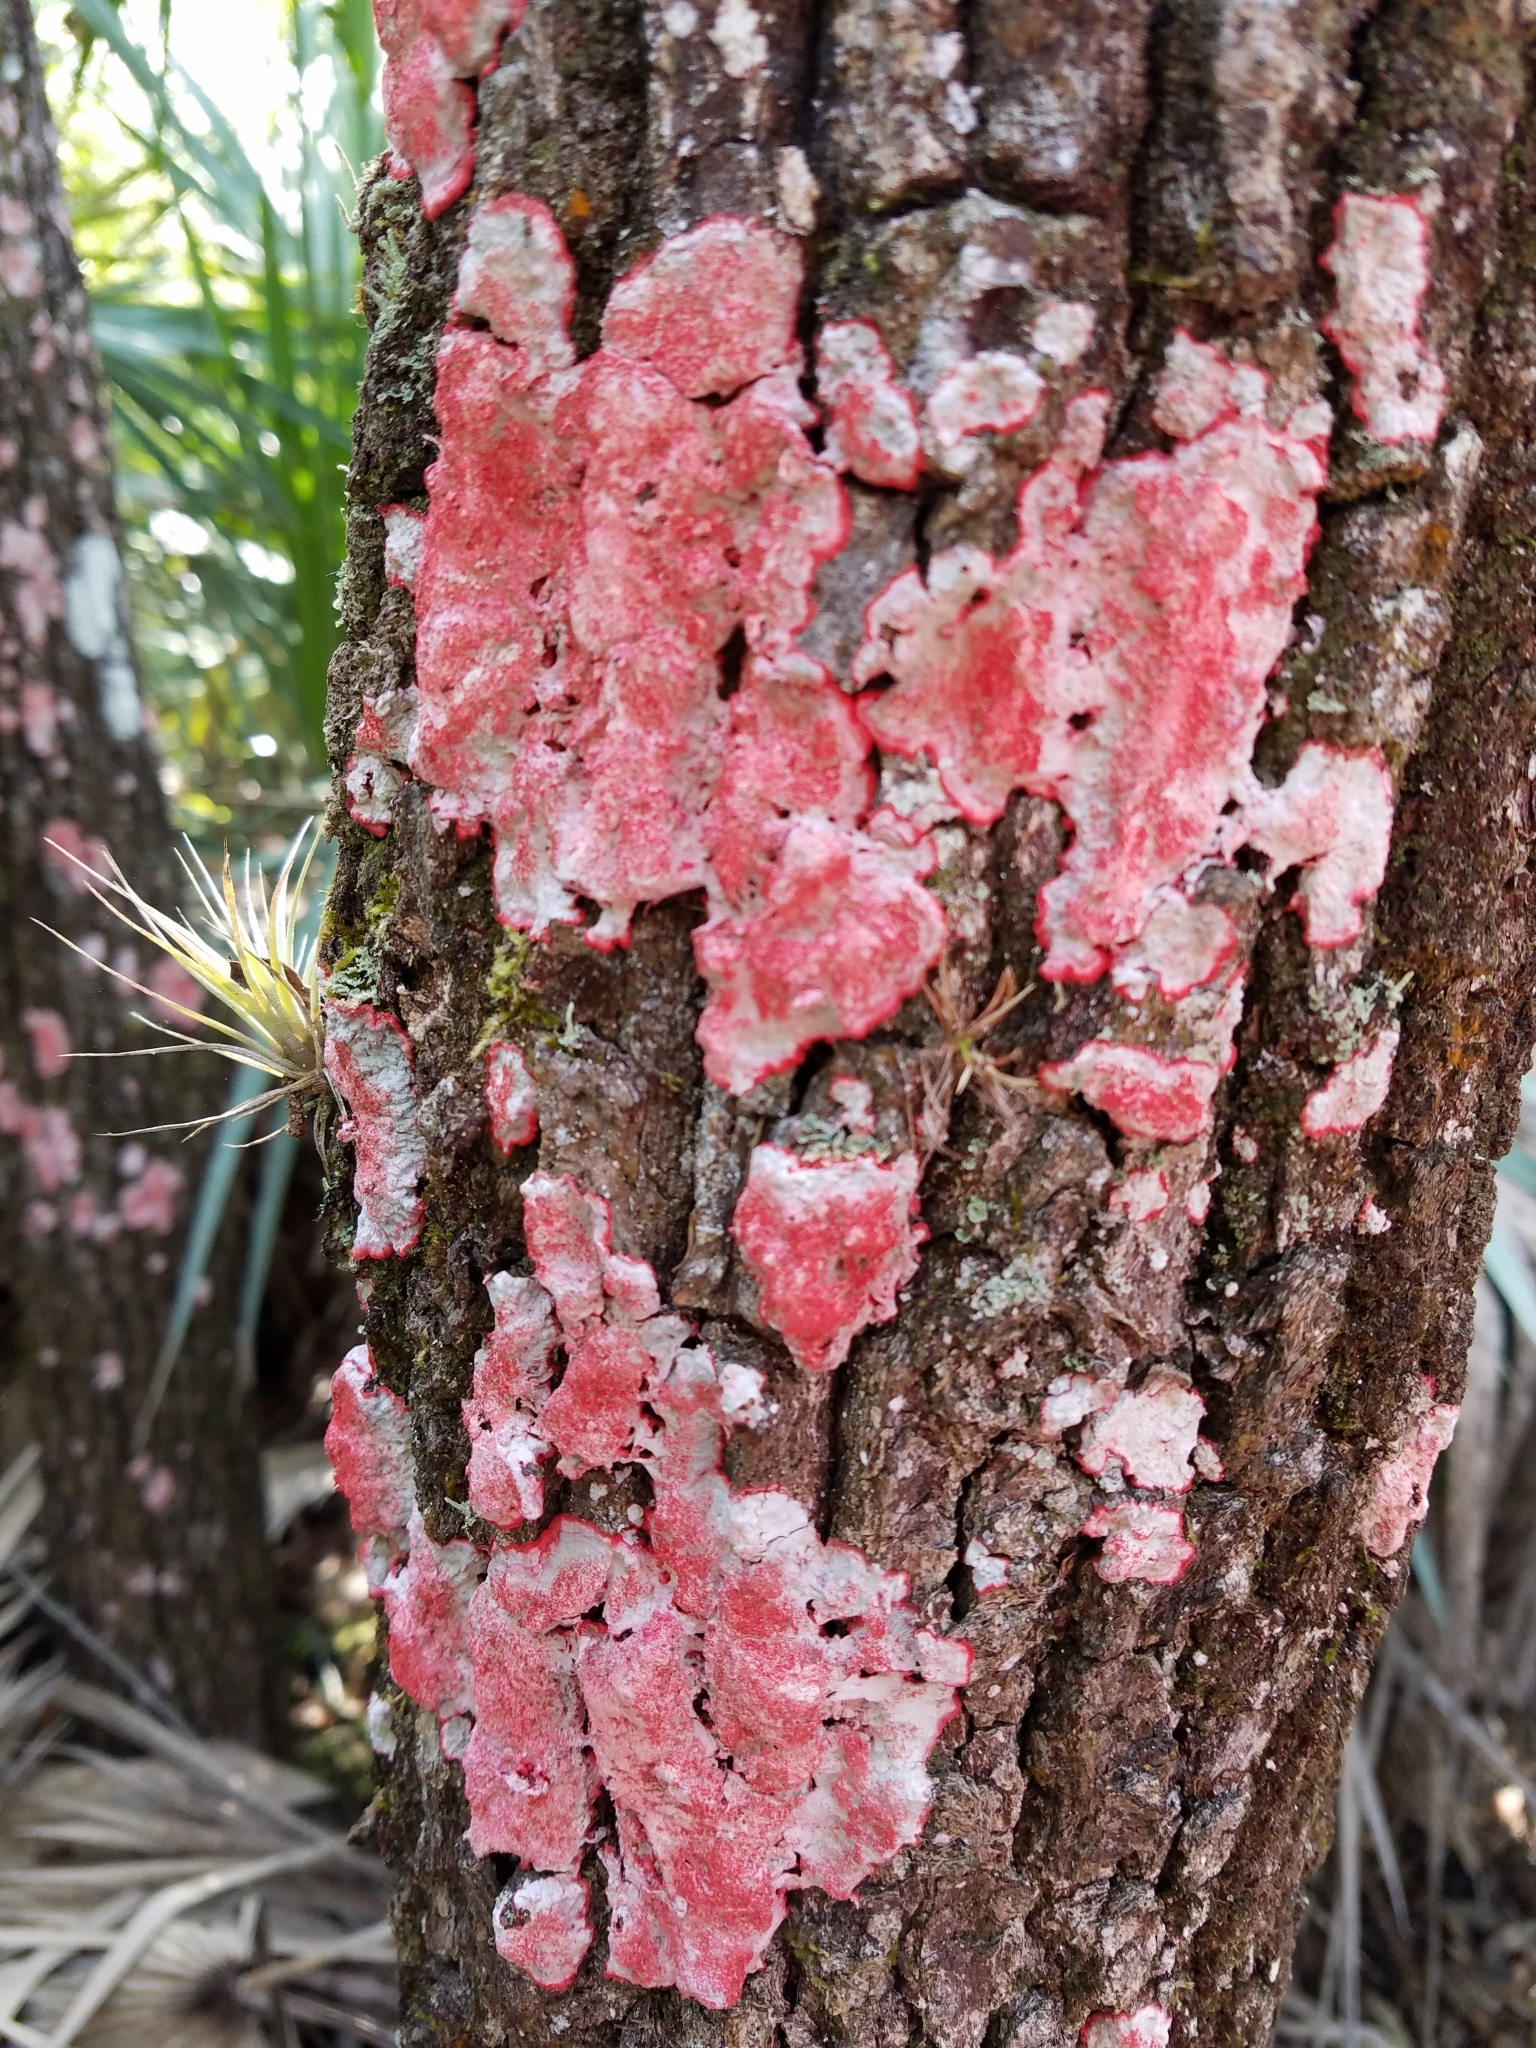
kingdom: Fungi
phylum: Ascomycota
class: Arthoniomycetes
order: Arthoniales
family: Arthoniaceae
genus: Herpothallon
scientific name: Herpothallon rubrocinctum
